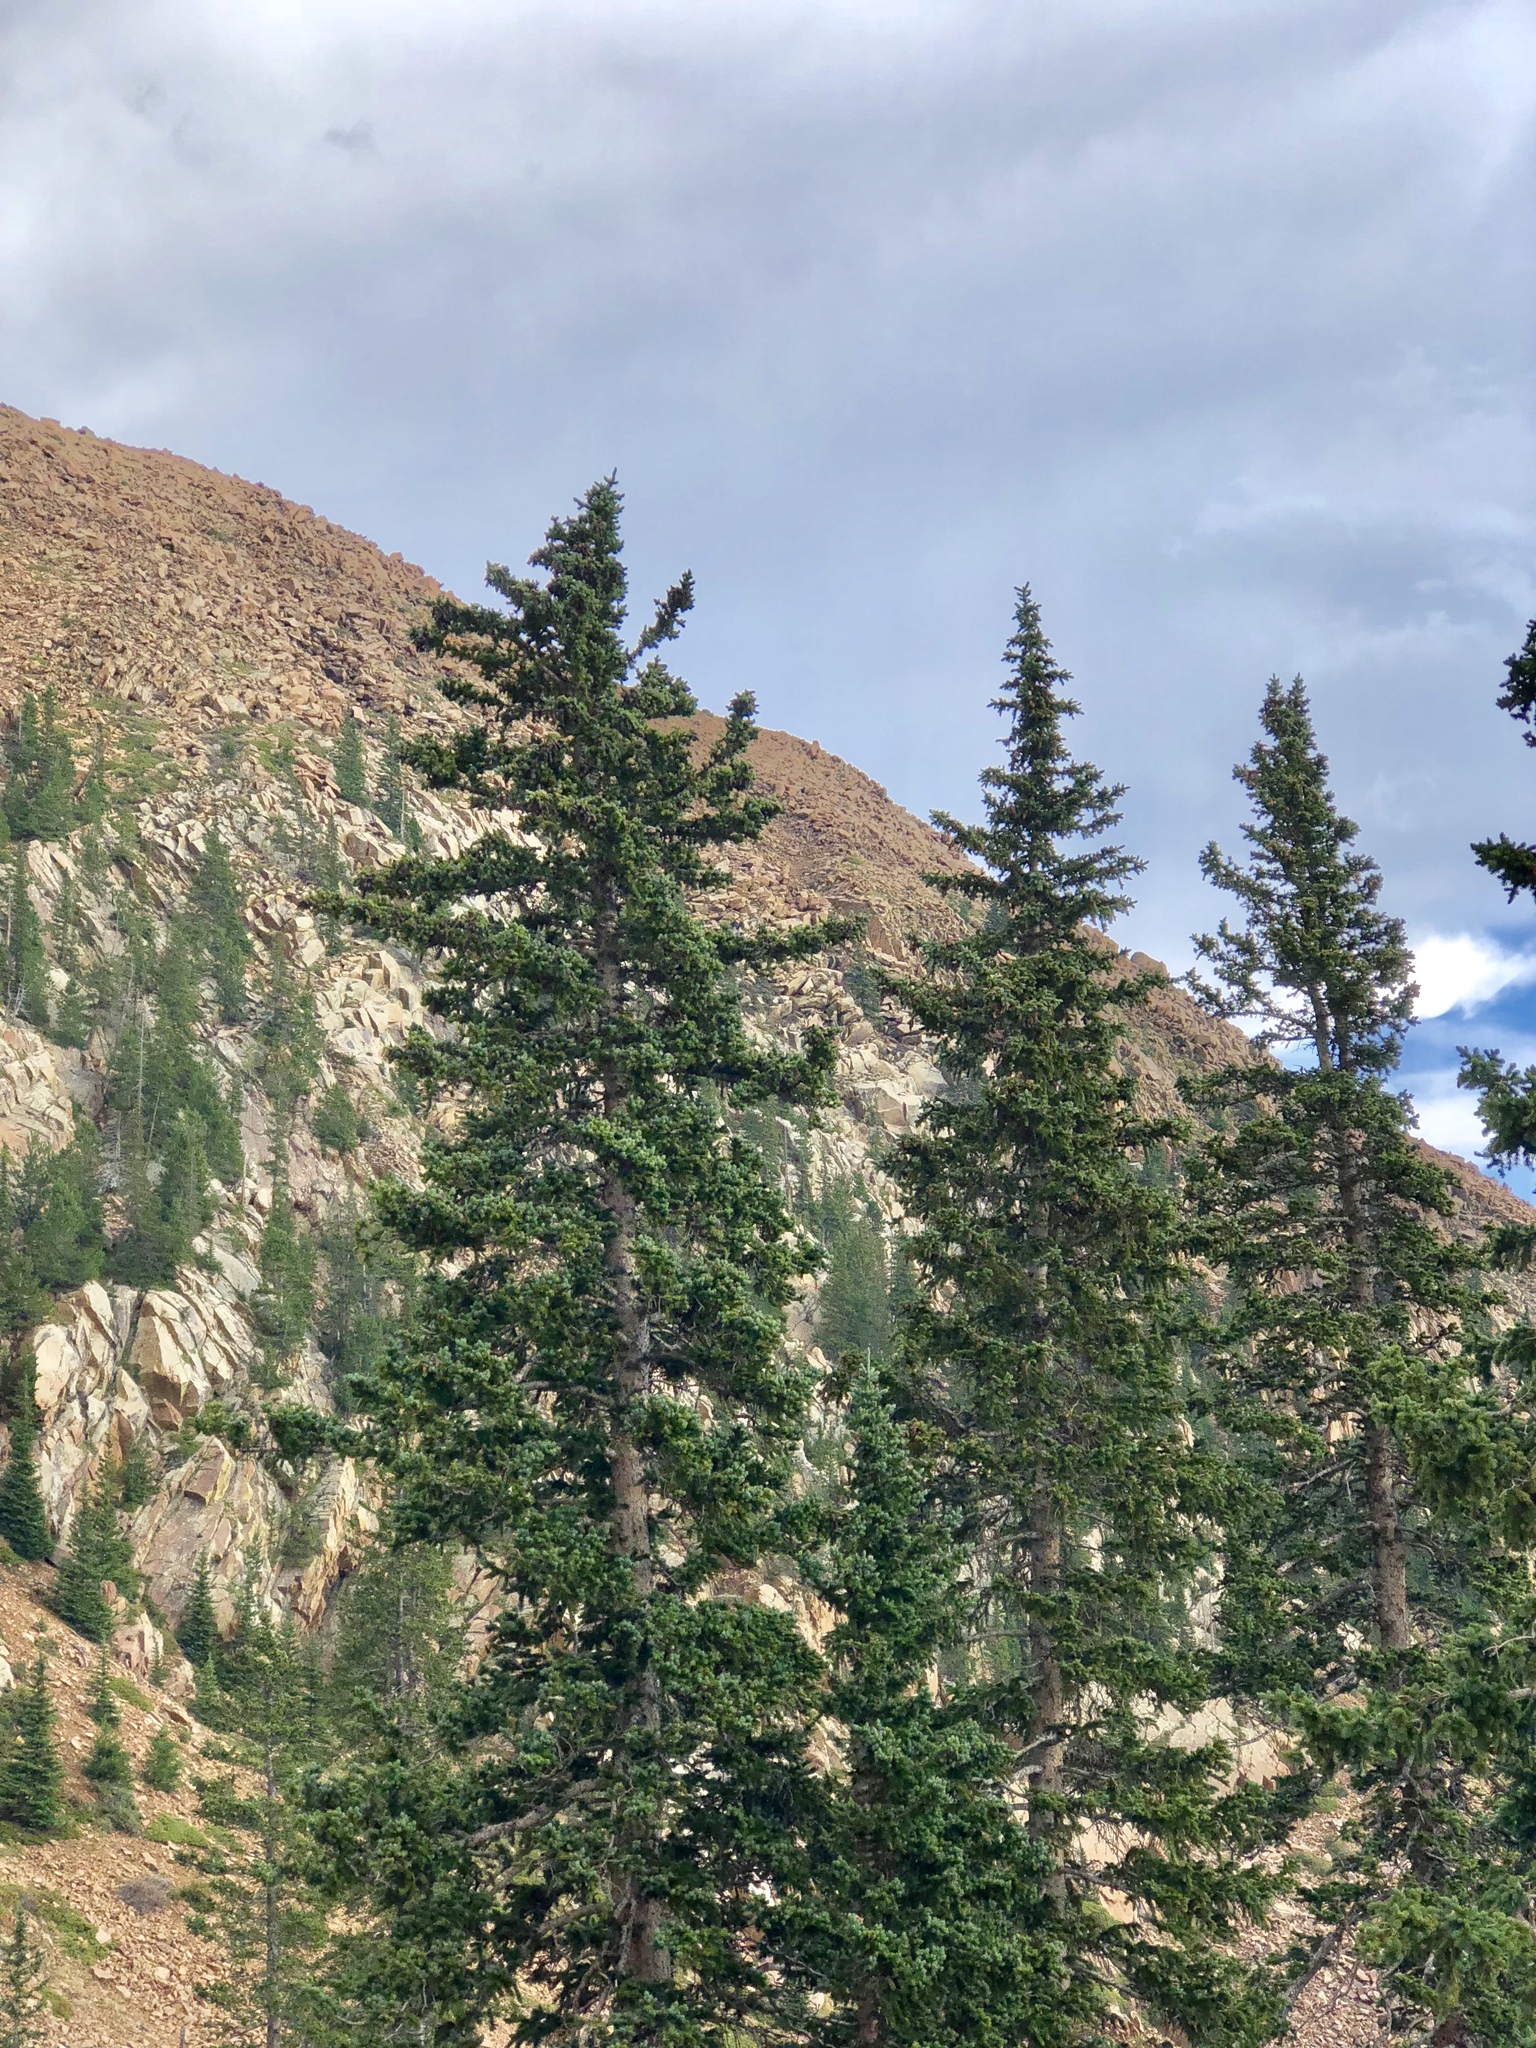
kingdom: Plantae
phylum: Tracheophyta
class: Pinopsida
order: Pinales
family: Pinaceae
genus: Picea
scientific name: Picea engelmannii
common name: Engelmann spruce
